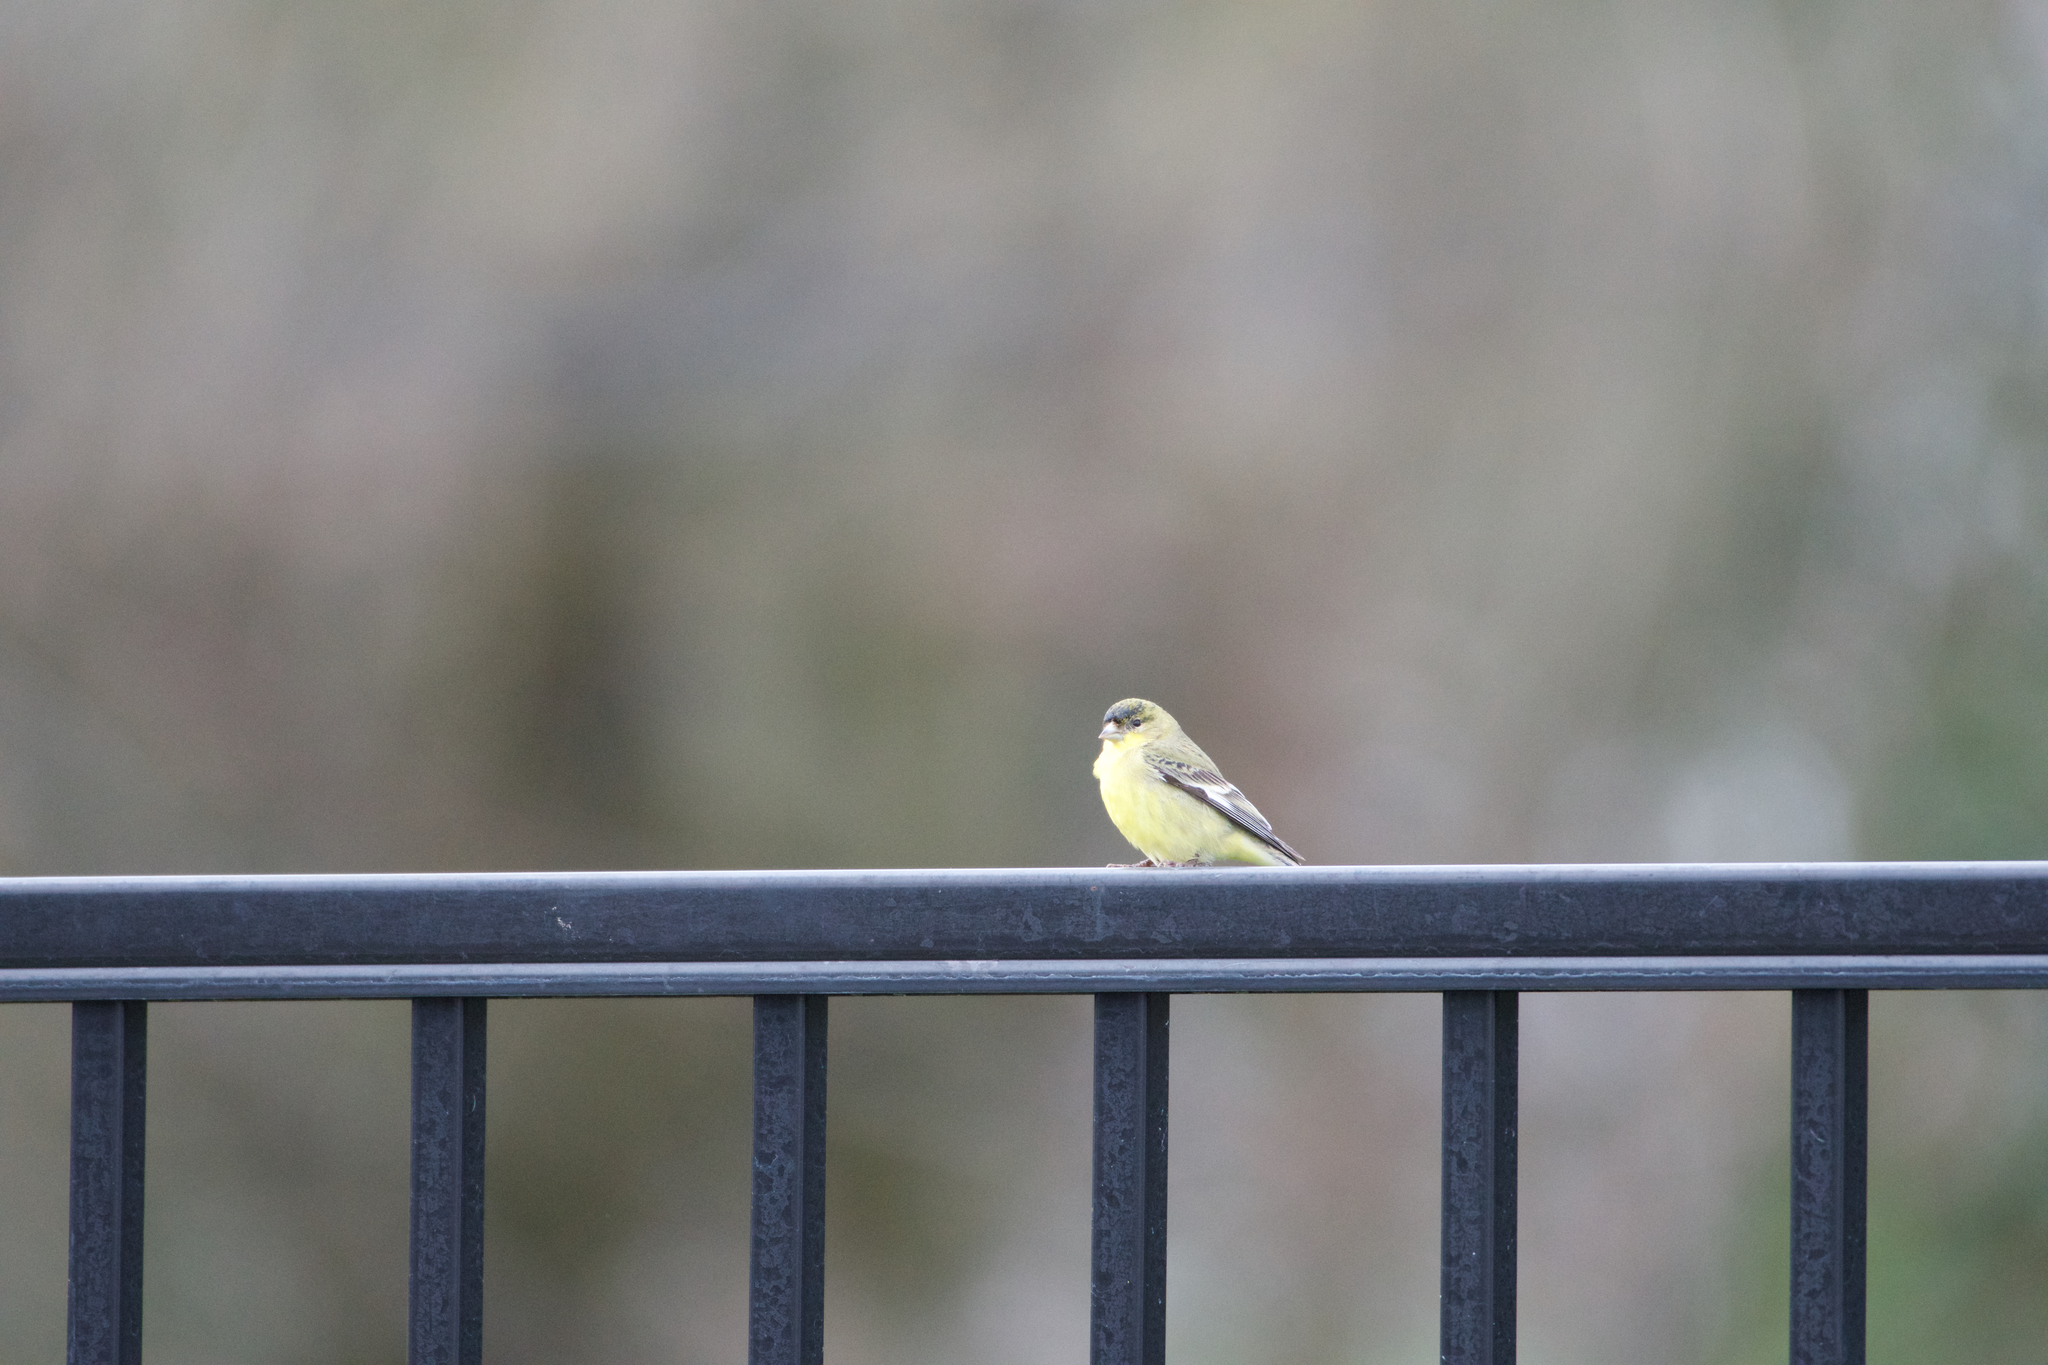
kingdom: Animalia
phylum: Chordata
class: Aves
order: Passeriformes
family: Fringillidae
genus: Spinus
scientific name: Spinus psaltria
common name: Lesser goldfinch
